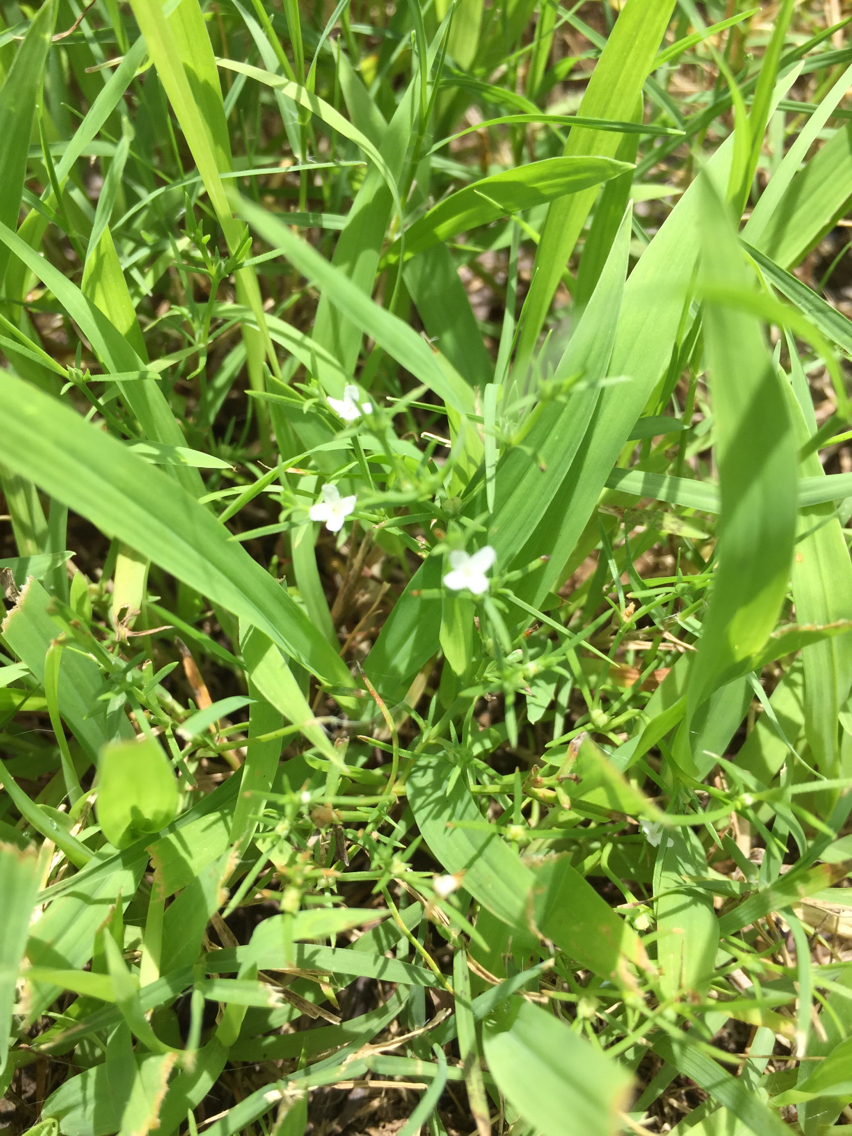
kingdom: Plantae
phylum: Tracheophyta
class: Magnoliopsida
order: Lamiales
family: Tetrachondraceae
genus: Polypremum
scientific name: Polypremum procumbens
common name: Juniper-leaf
